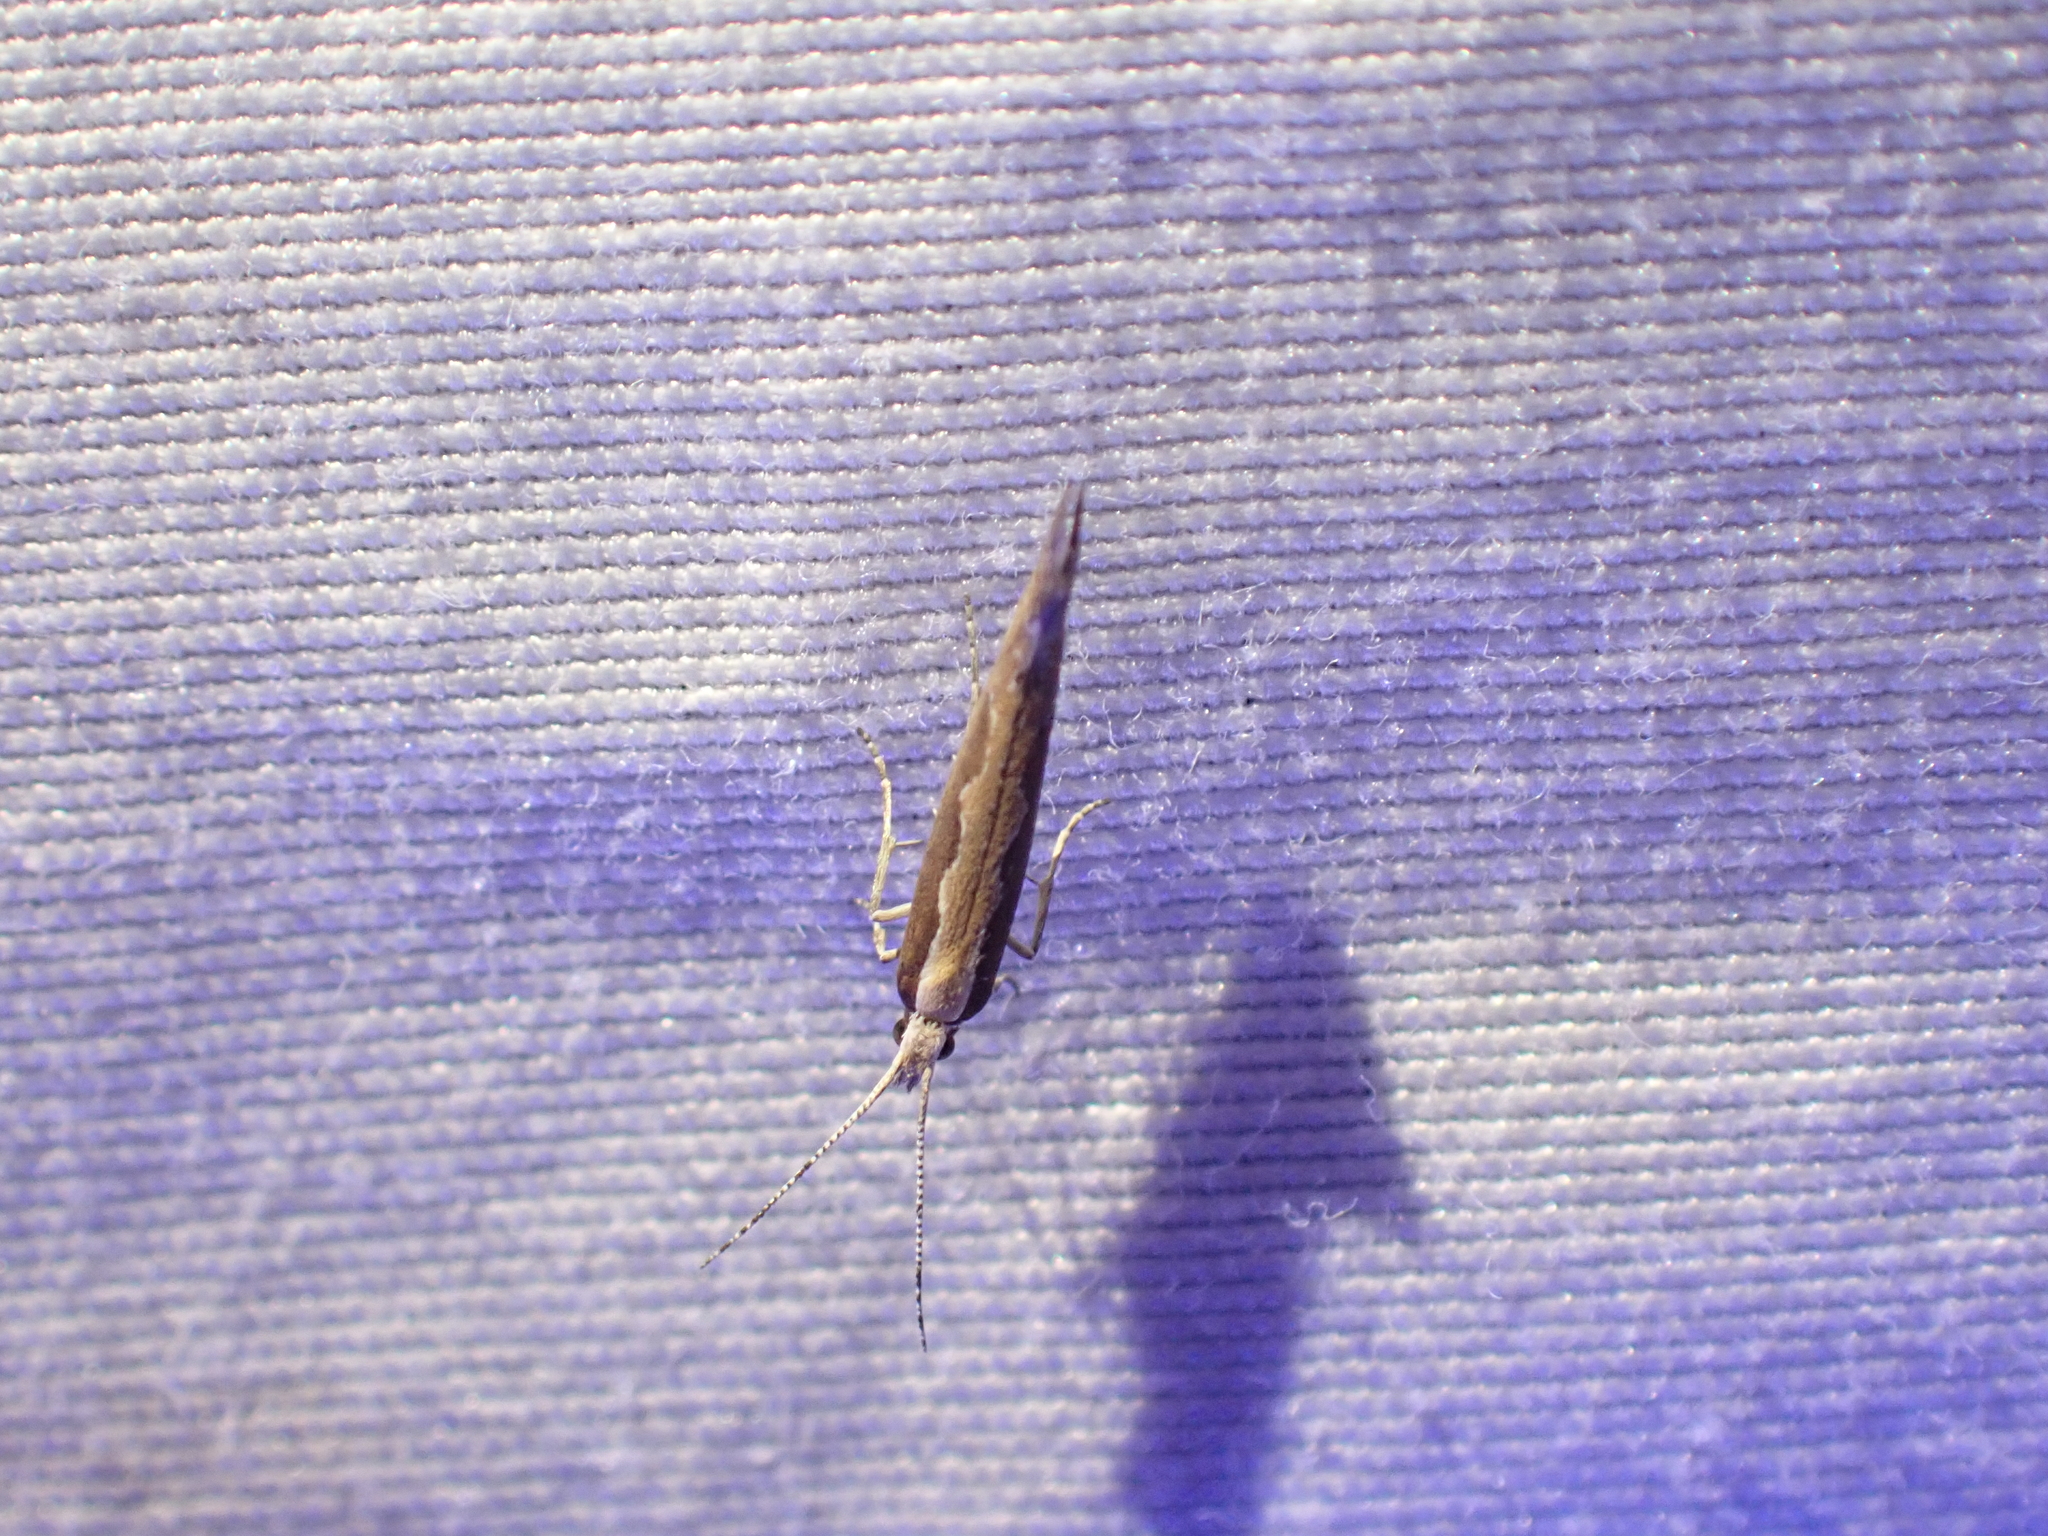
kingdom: Animalia
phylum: Arthropoda
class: Insecta
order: Lepidoptera
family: Plutellidae
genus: Plutella
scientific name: Plutella xylostella
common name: Diamond-back moth
